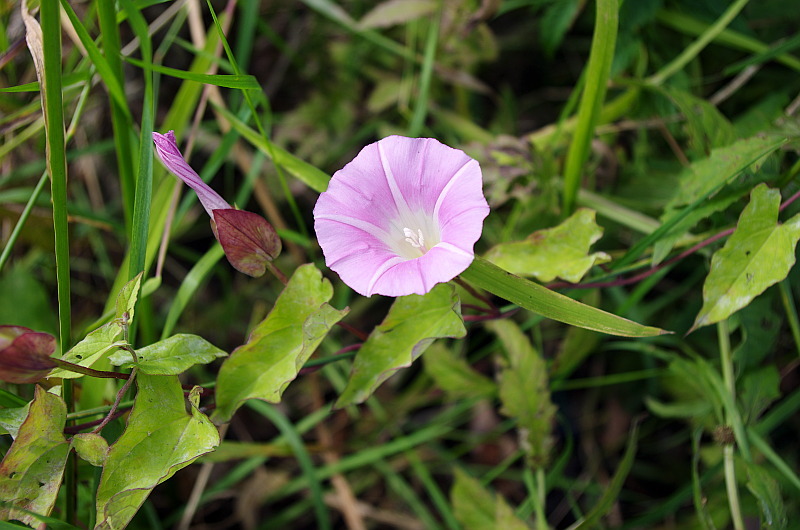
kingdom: Plantae
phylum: Tracheophyta
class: Magnoliopsida
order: Solanales
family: Convolvulaceae
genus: Calystegia
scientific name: Calystegia sepium
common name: Hedge bindweed
